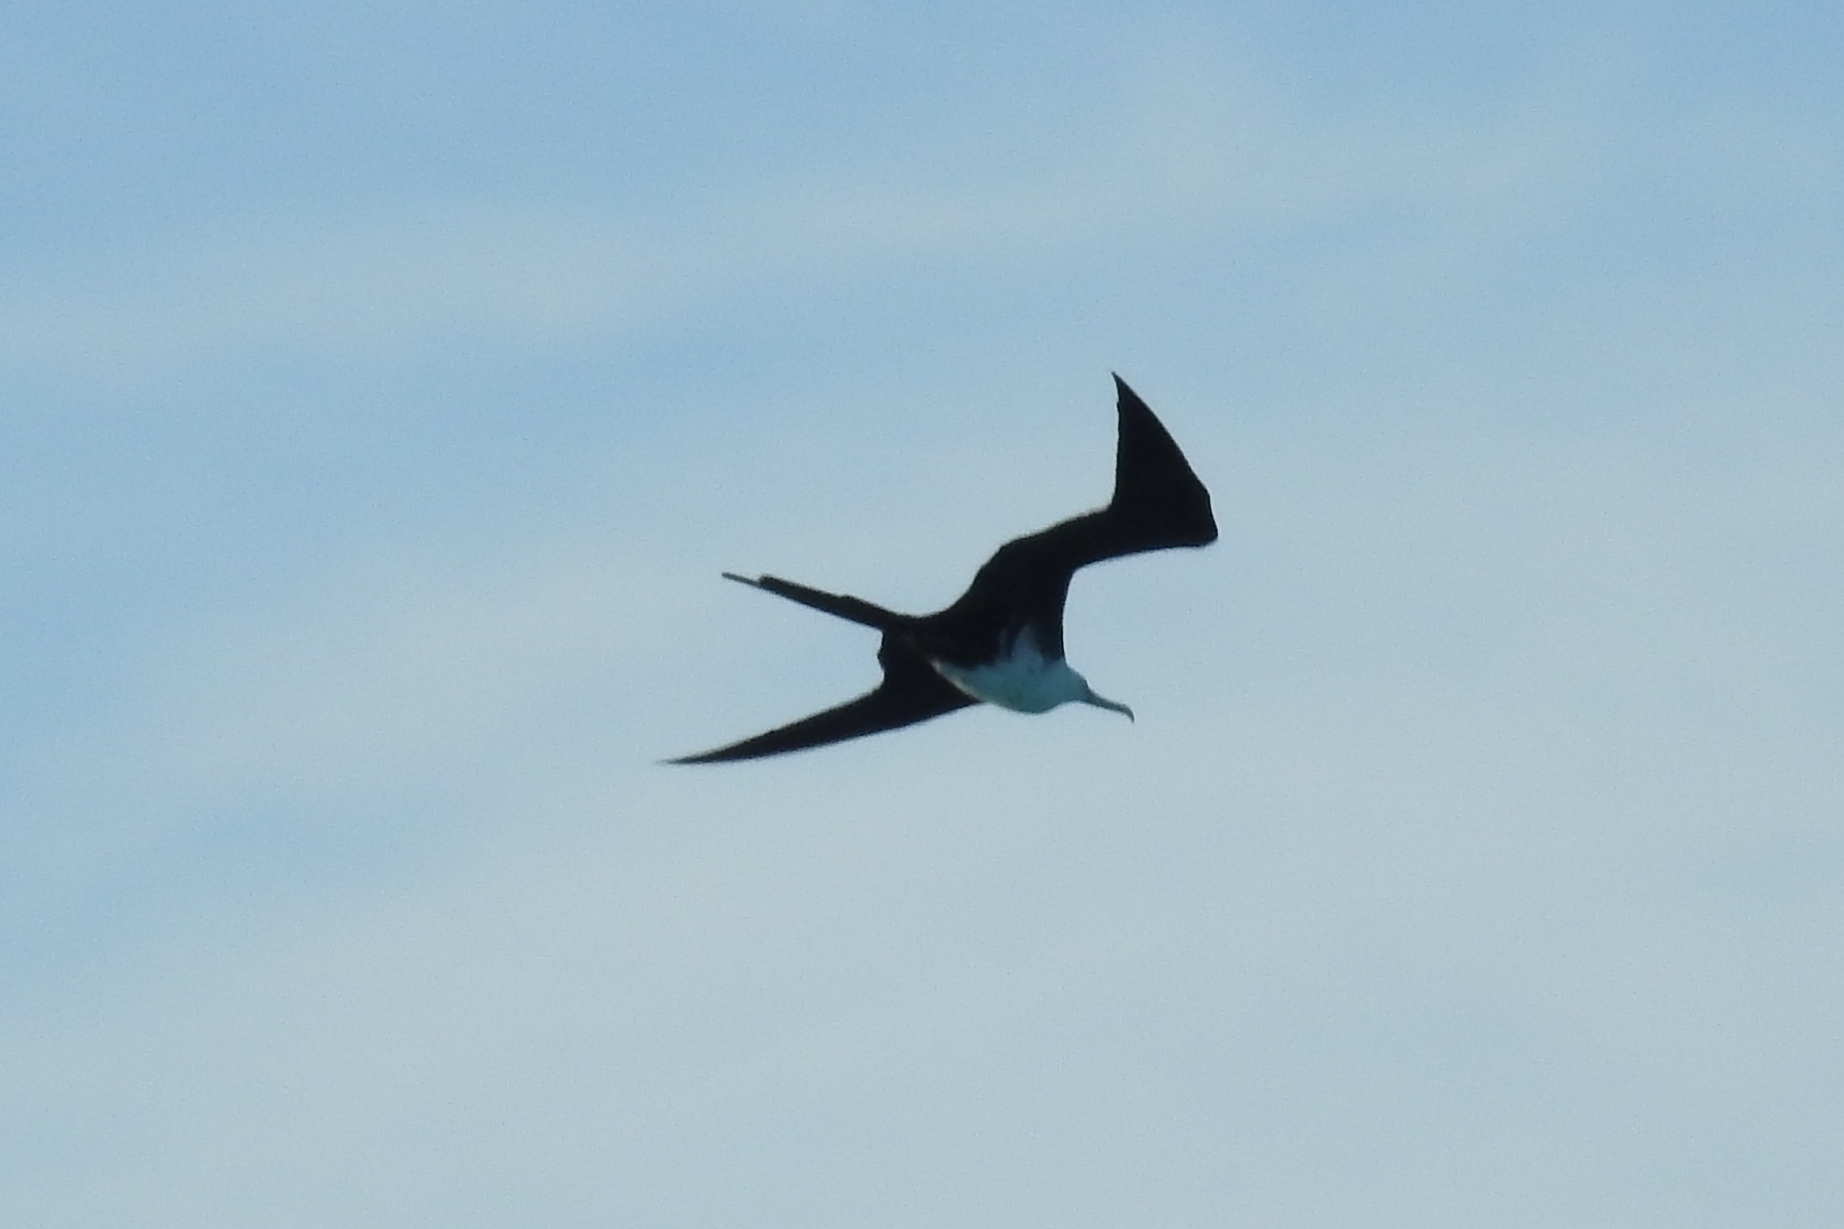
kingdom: Animalia
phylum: Chordata
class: Aves
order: Suliformes
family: Fregatidae
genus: Fregata
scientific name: Fregata magnificens
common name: Magnificent frigatebird
